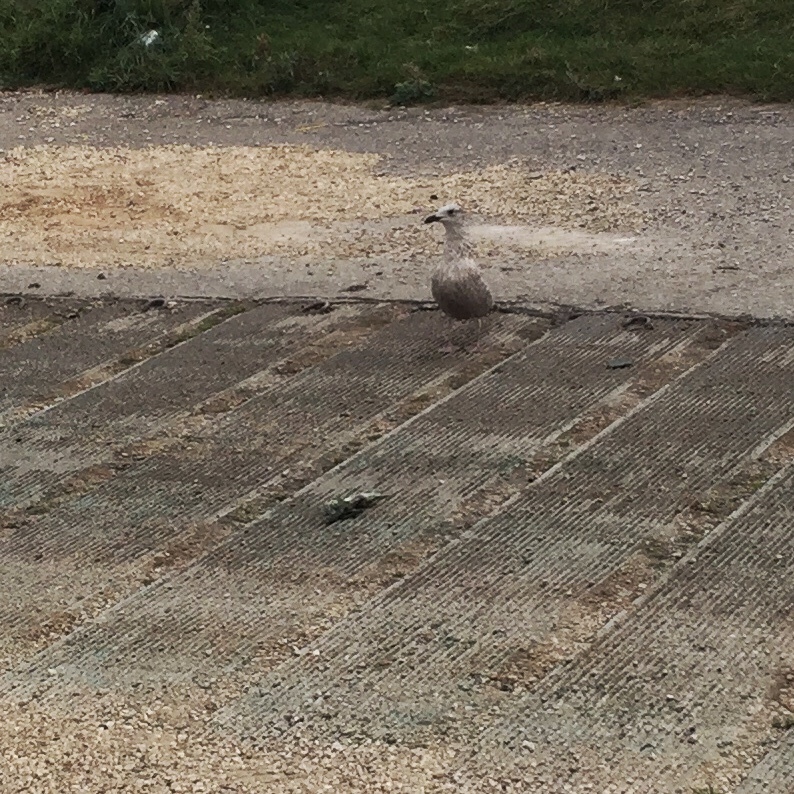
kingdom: Animalia
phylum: Chordata
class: Aves
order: Charadriiformes
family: Laridae
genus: Larus
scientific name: Larus argentatus
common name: Herring gull
